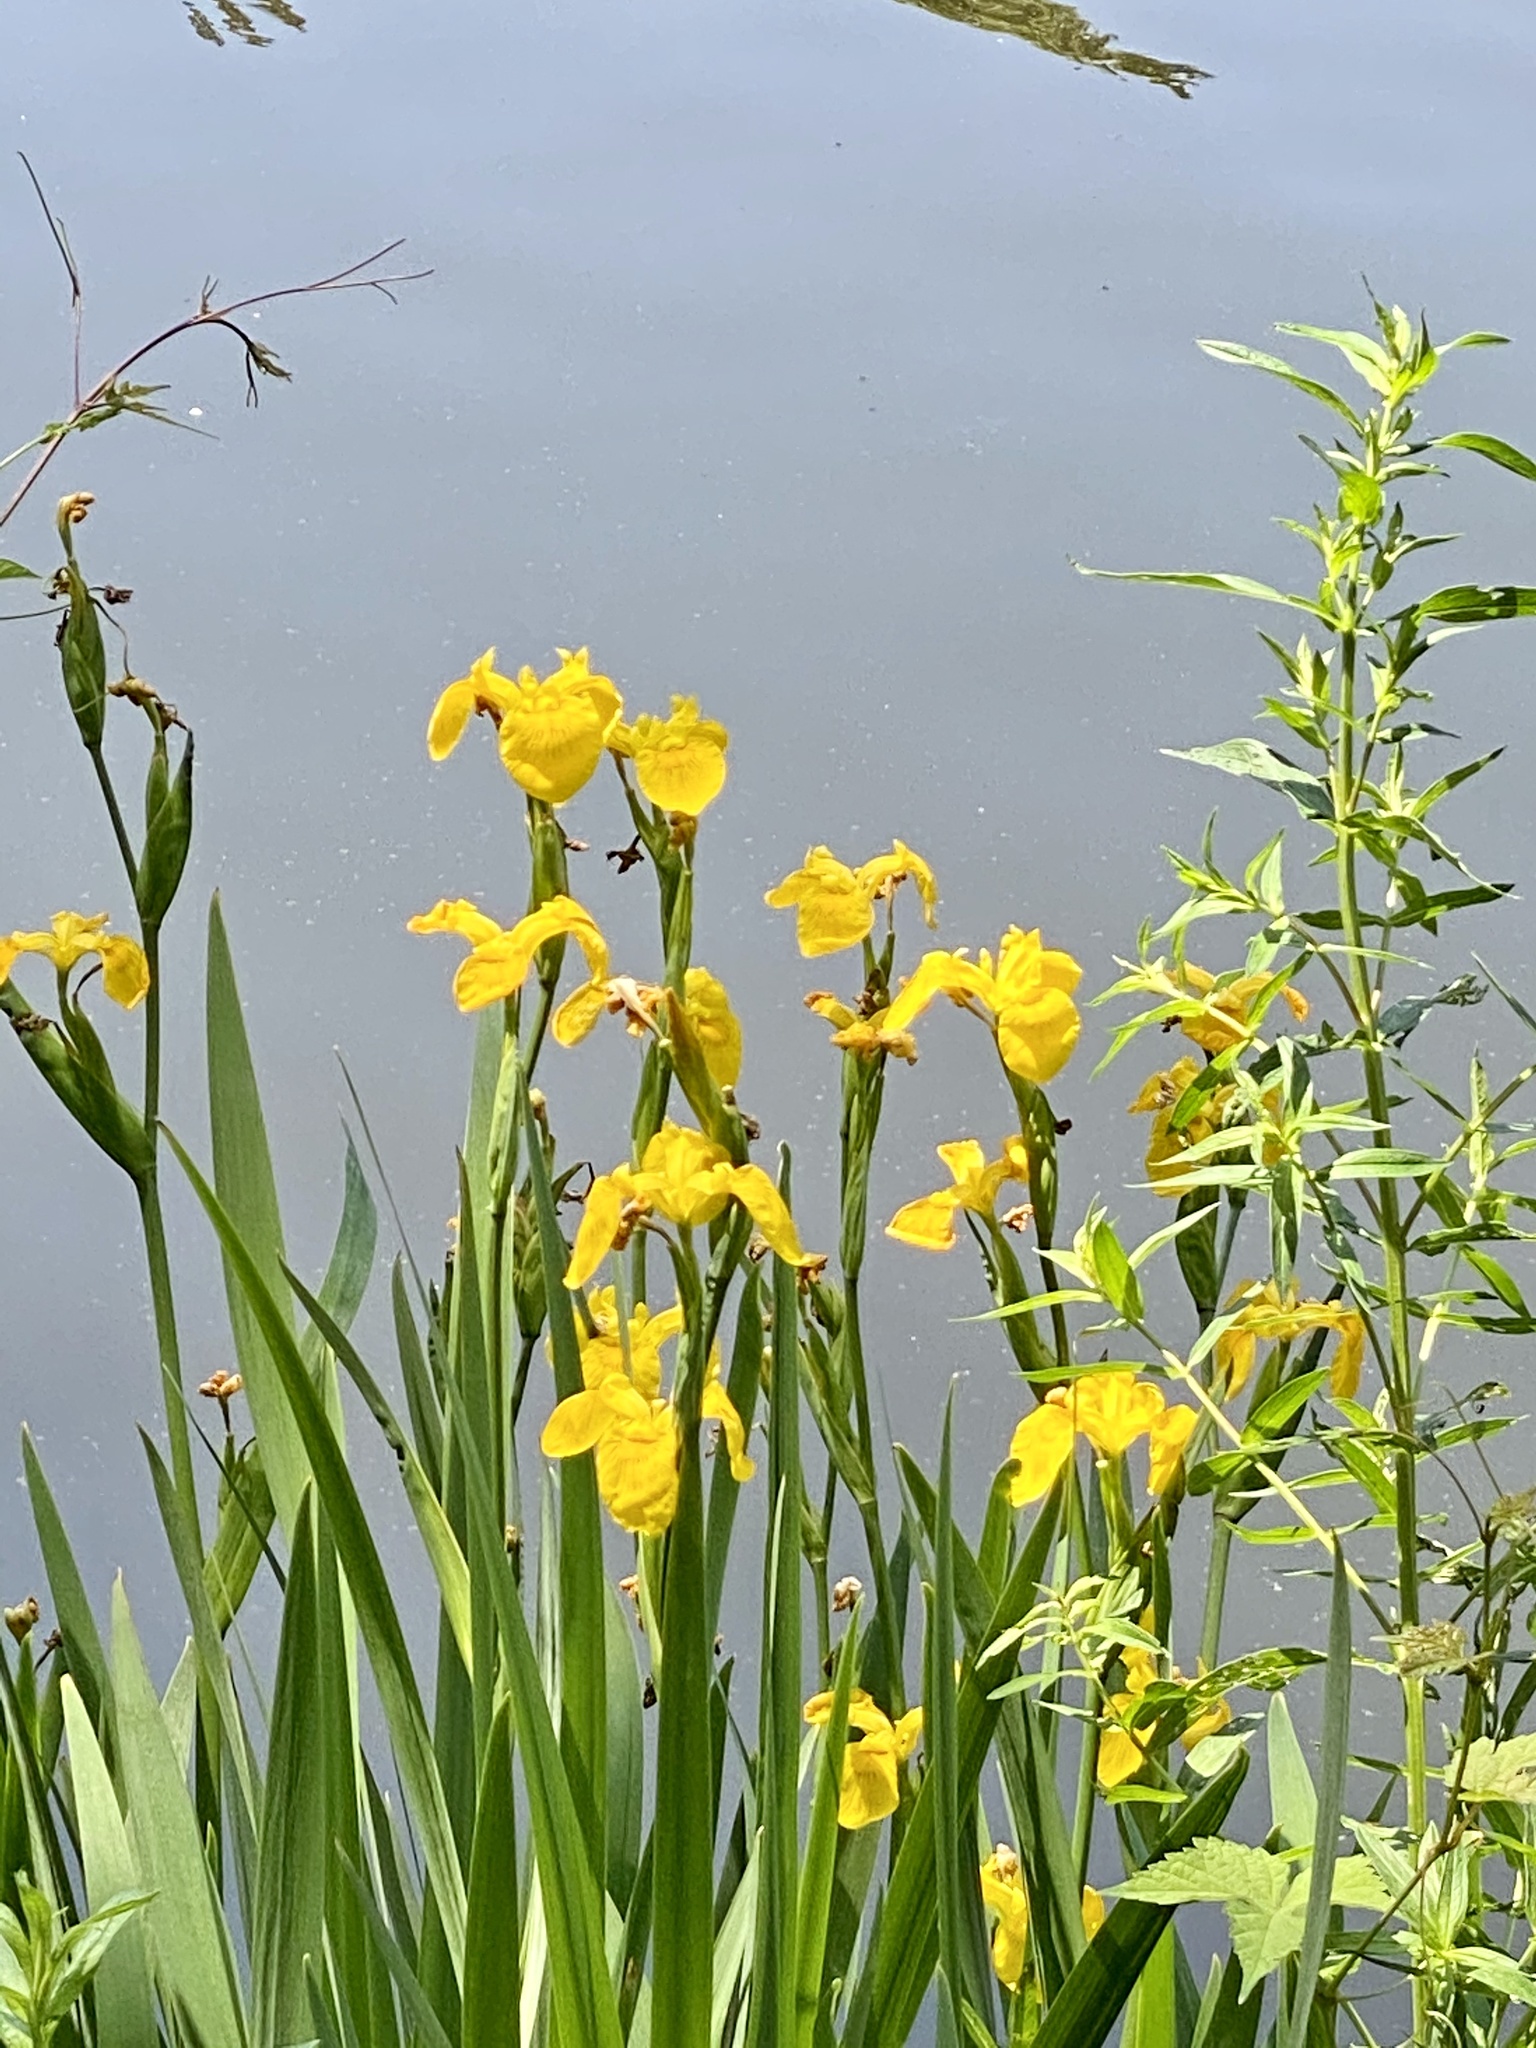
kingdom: Plantae
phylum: Tracheophyta
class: Liliopsida
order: Asparagales
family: Iridaceae
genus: Iris
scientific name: Iris pseudacorus
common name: Yellow flag
